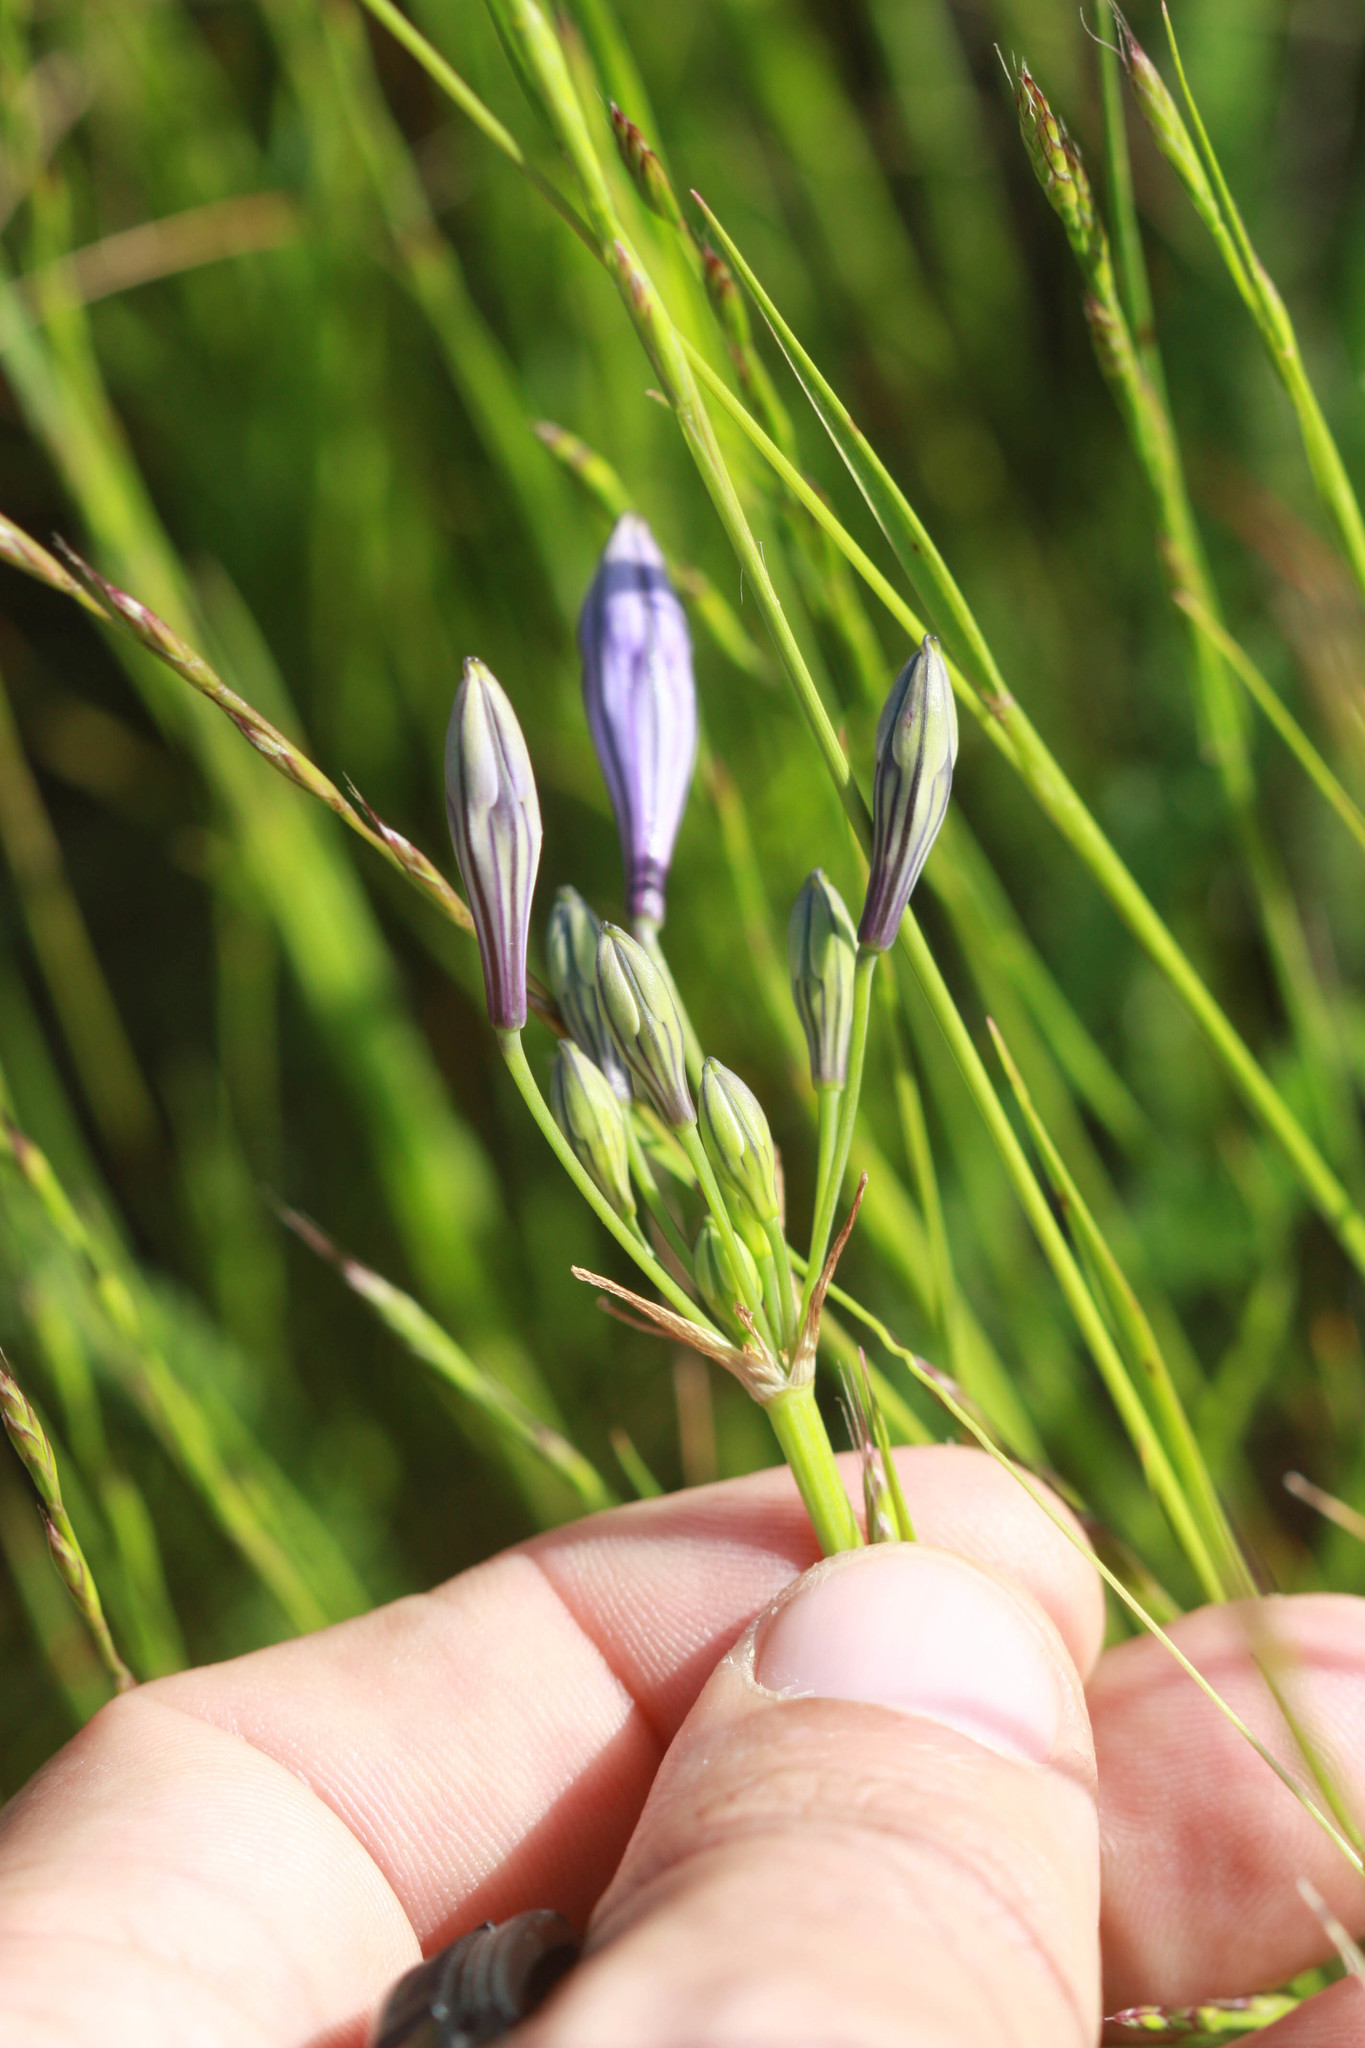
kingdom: Plantae
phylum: Tracheophyta
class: Liliopsida
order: Asparagales
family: Asparagaceae
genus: Triteleia
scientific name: Triteleia laxa
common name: Triplet-lily
